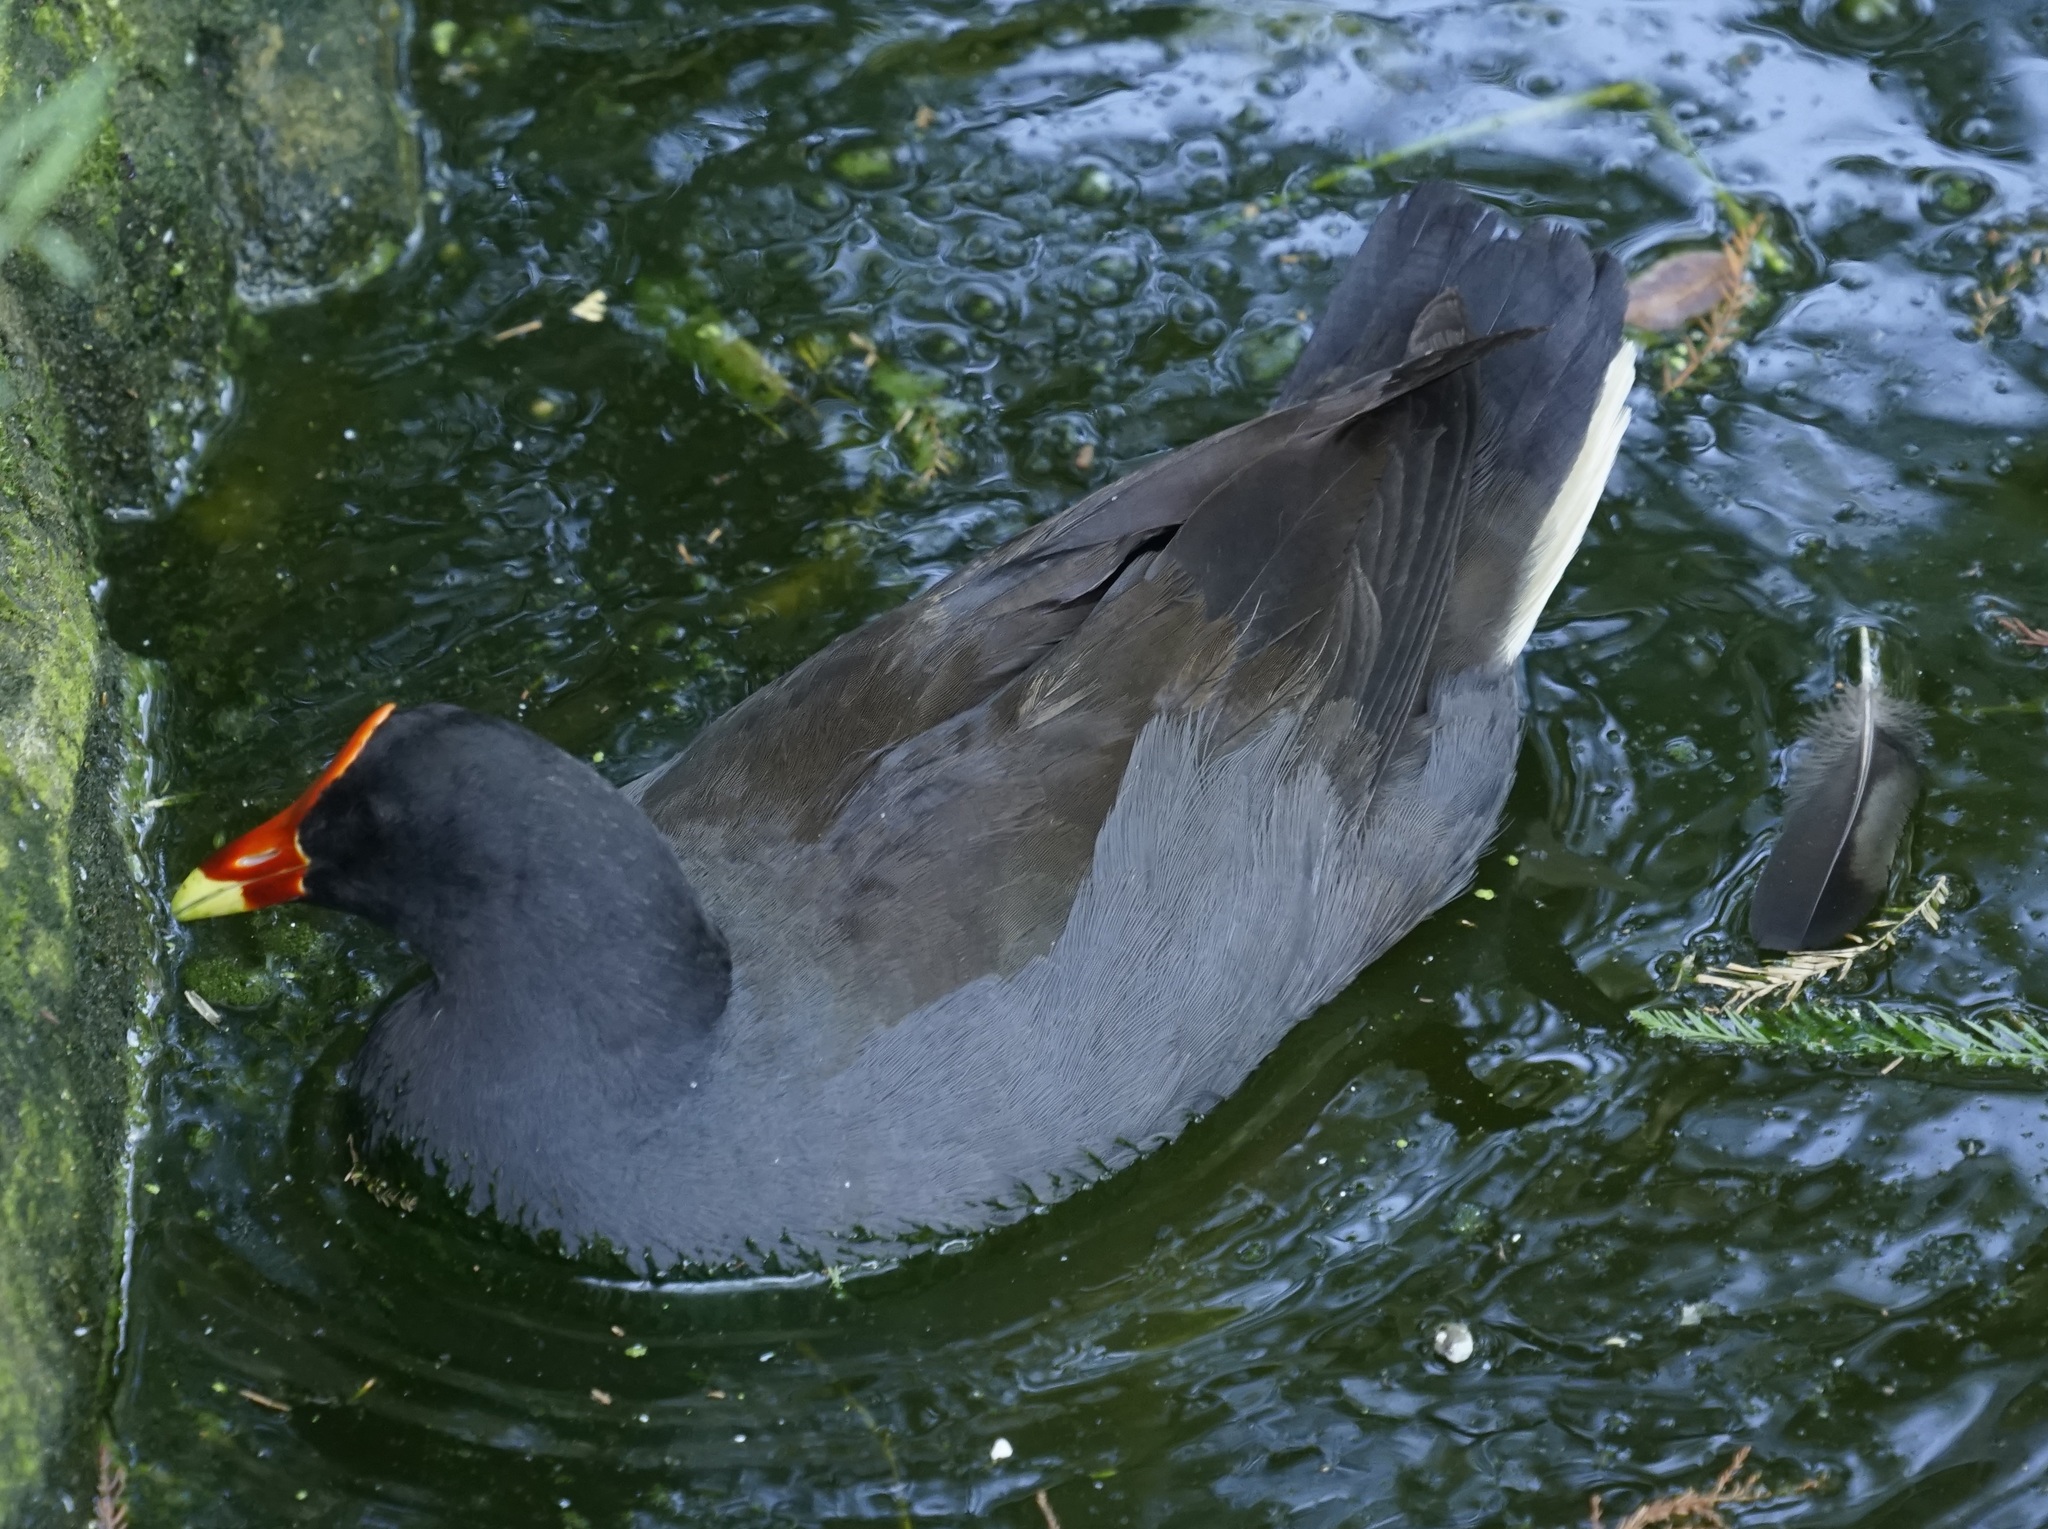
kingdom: Animalia
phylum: Chordata
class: Aves
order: Gruiformes
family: Rallidae
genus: Gallinula
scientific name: Gallinula tenebrosa
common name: Dusky moorhen
